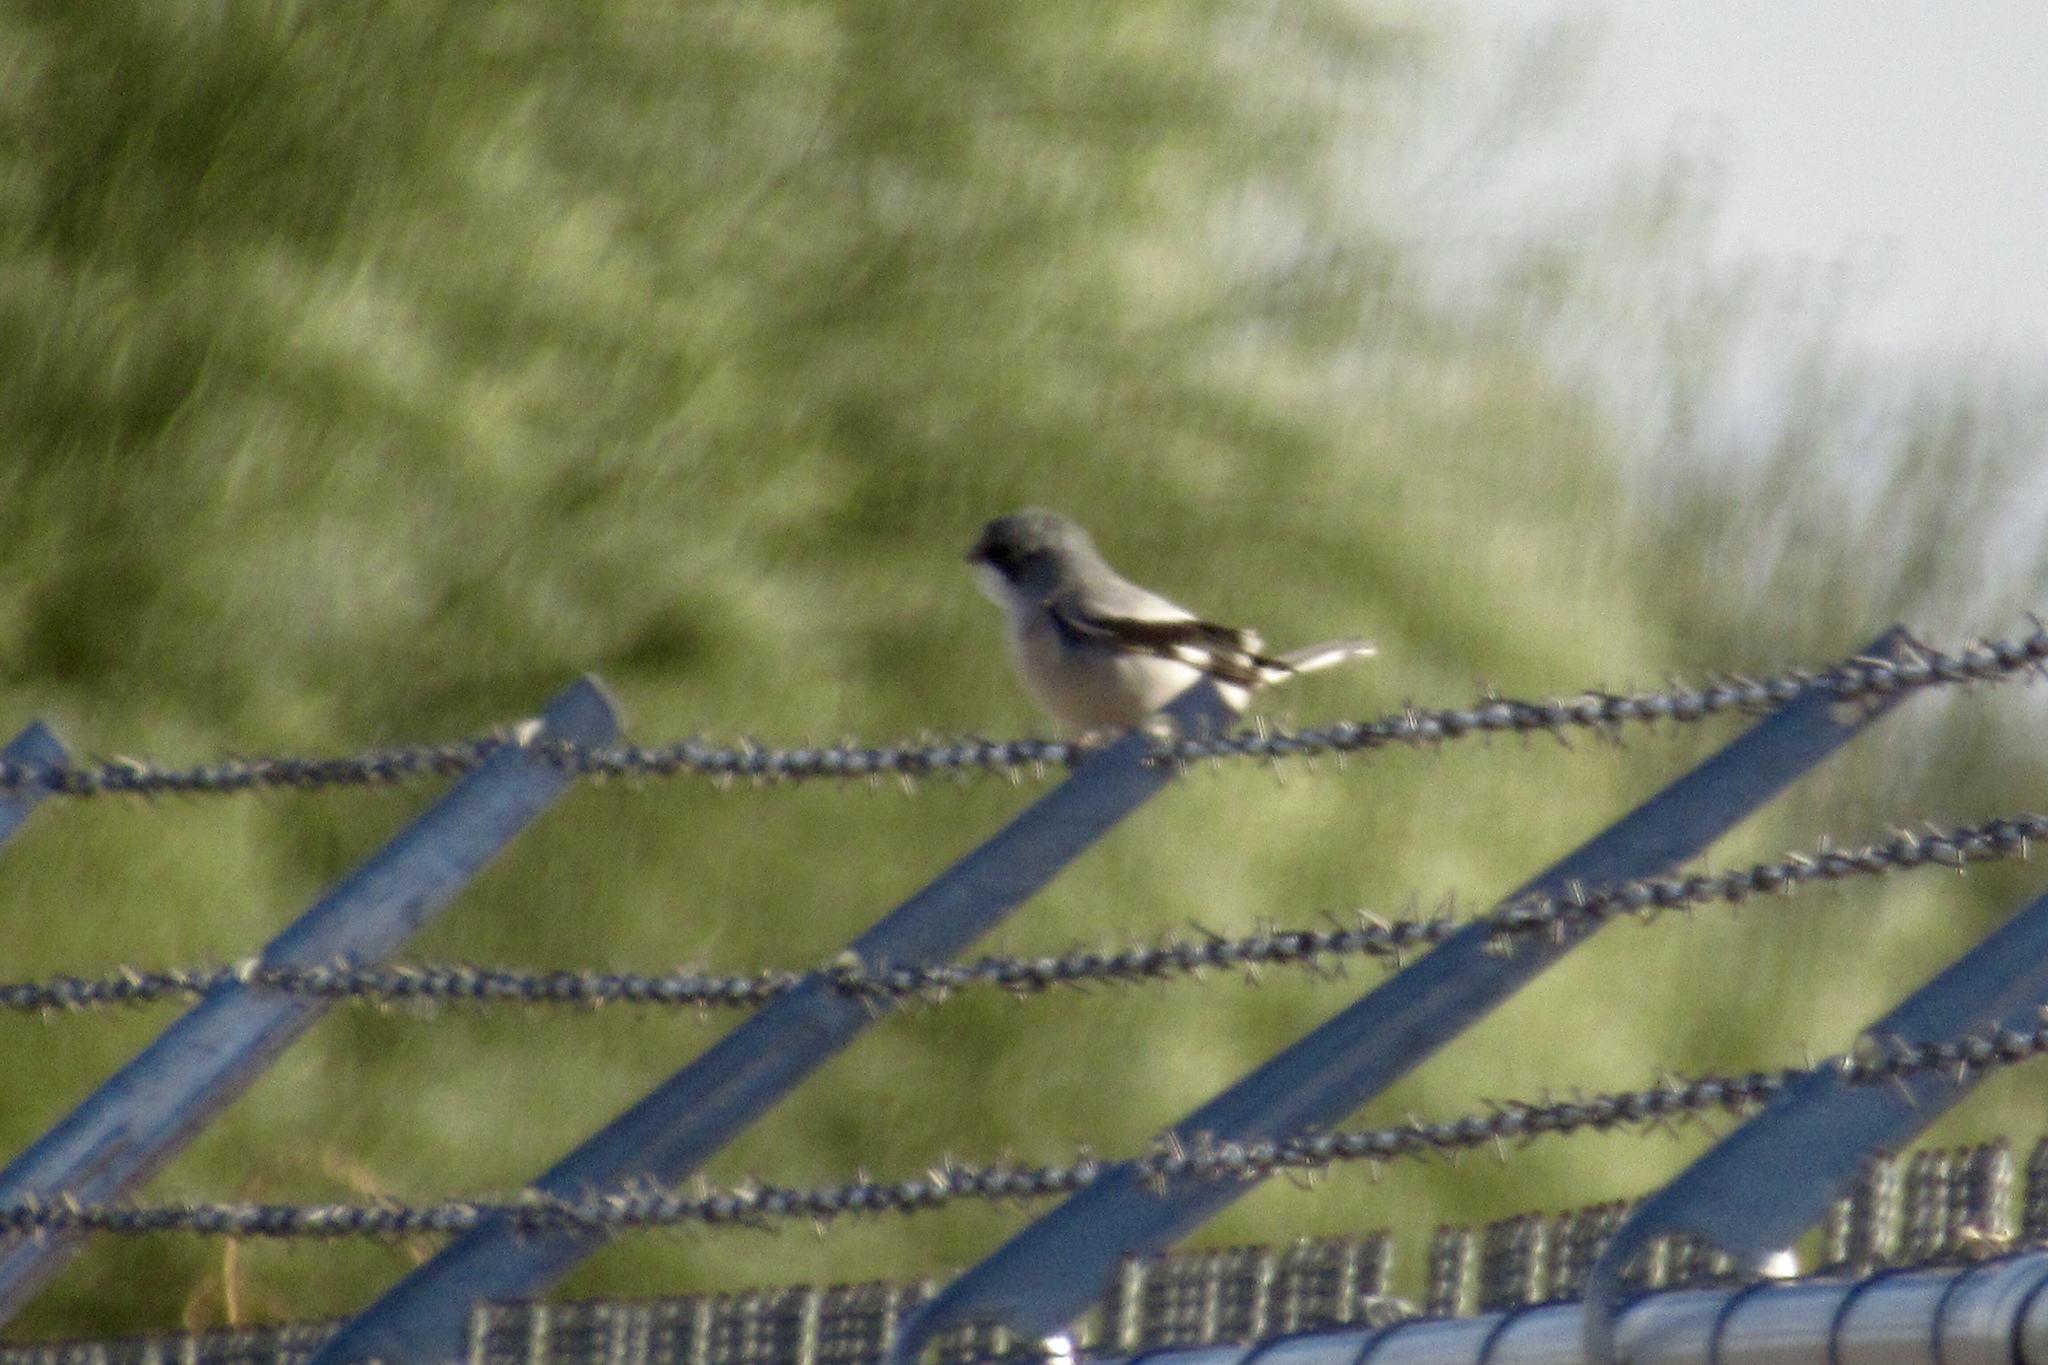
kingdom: Animalia
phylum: Chordata
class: Aves
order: Passeriformes
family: Laniidae
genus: Lanius
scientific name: Lanius ludovicianus
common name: Loggerhead shrike
